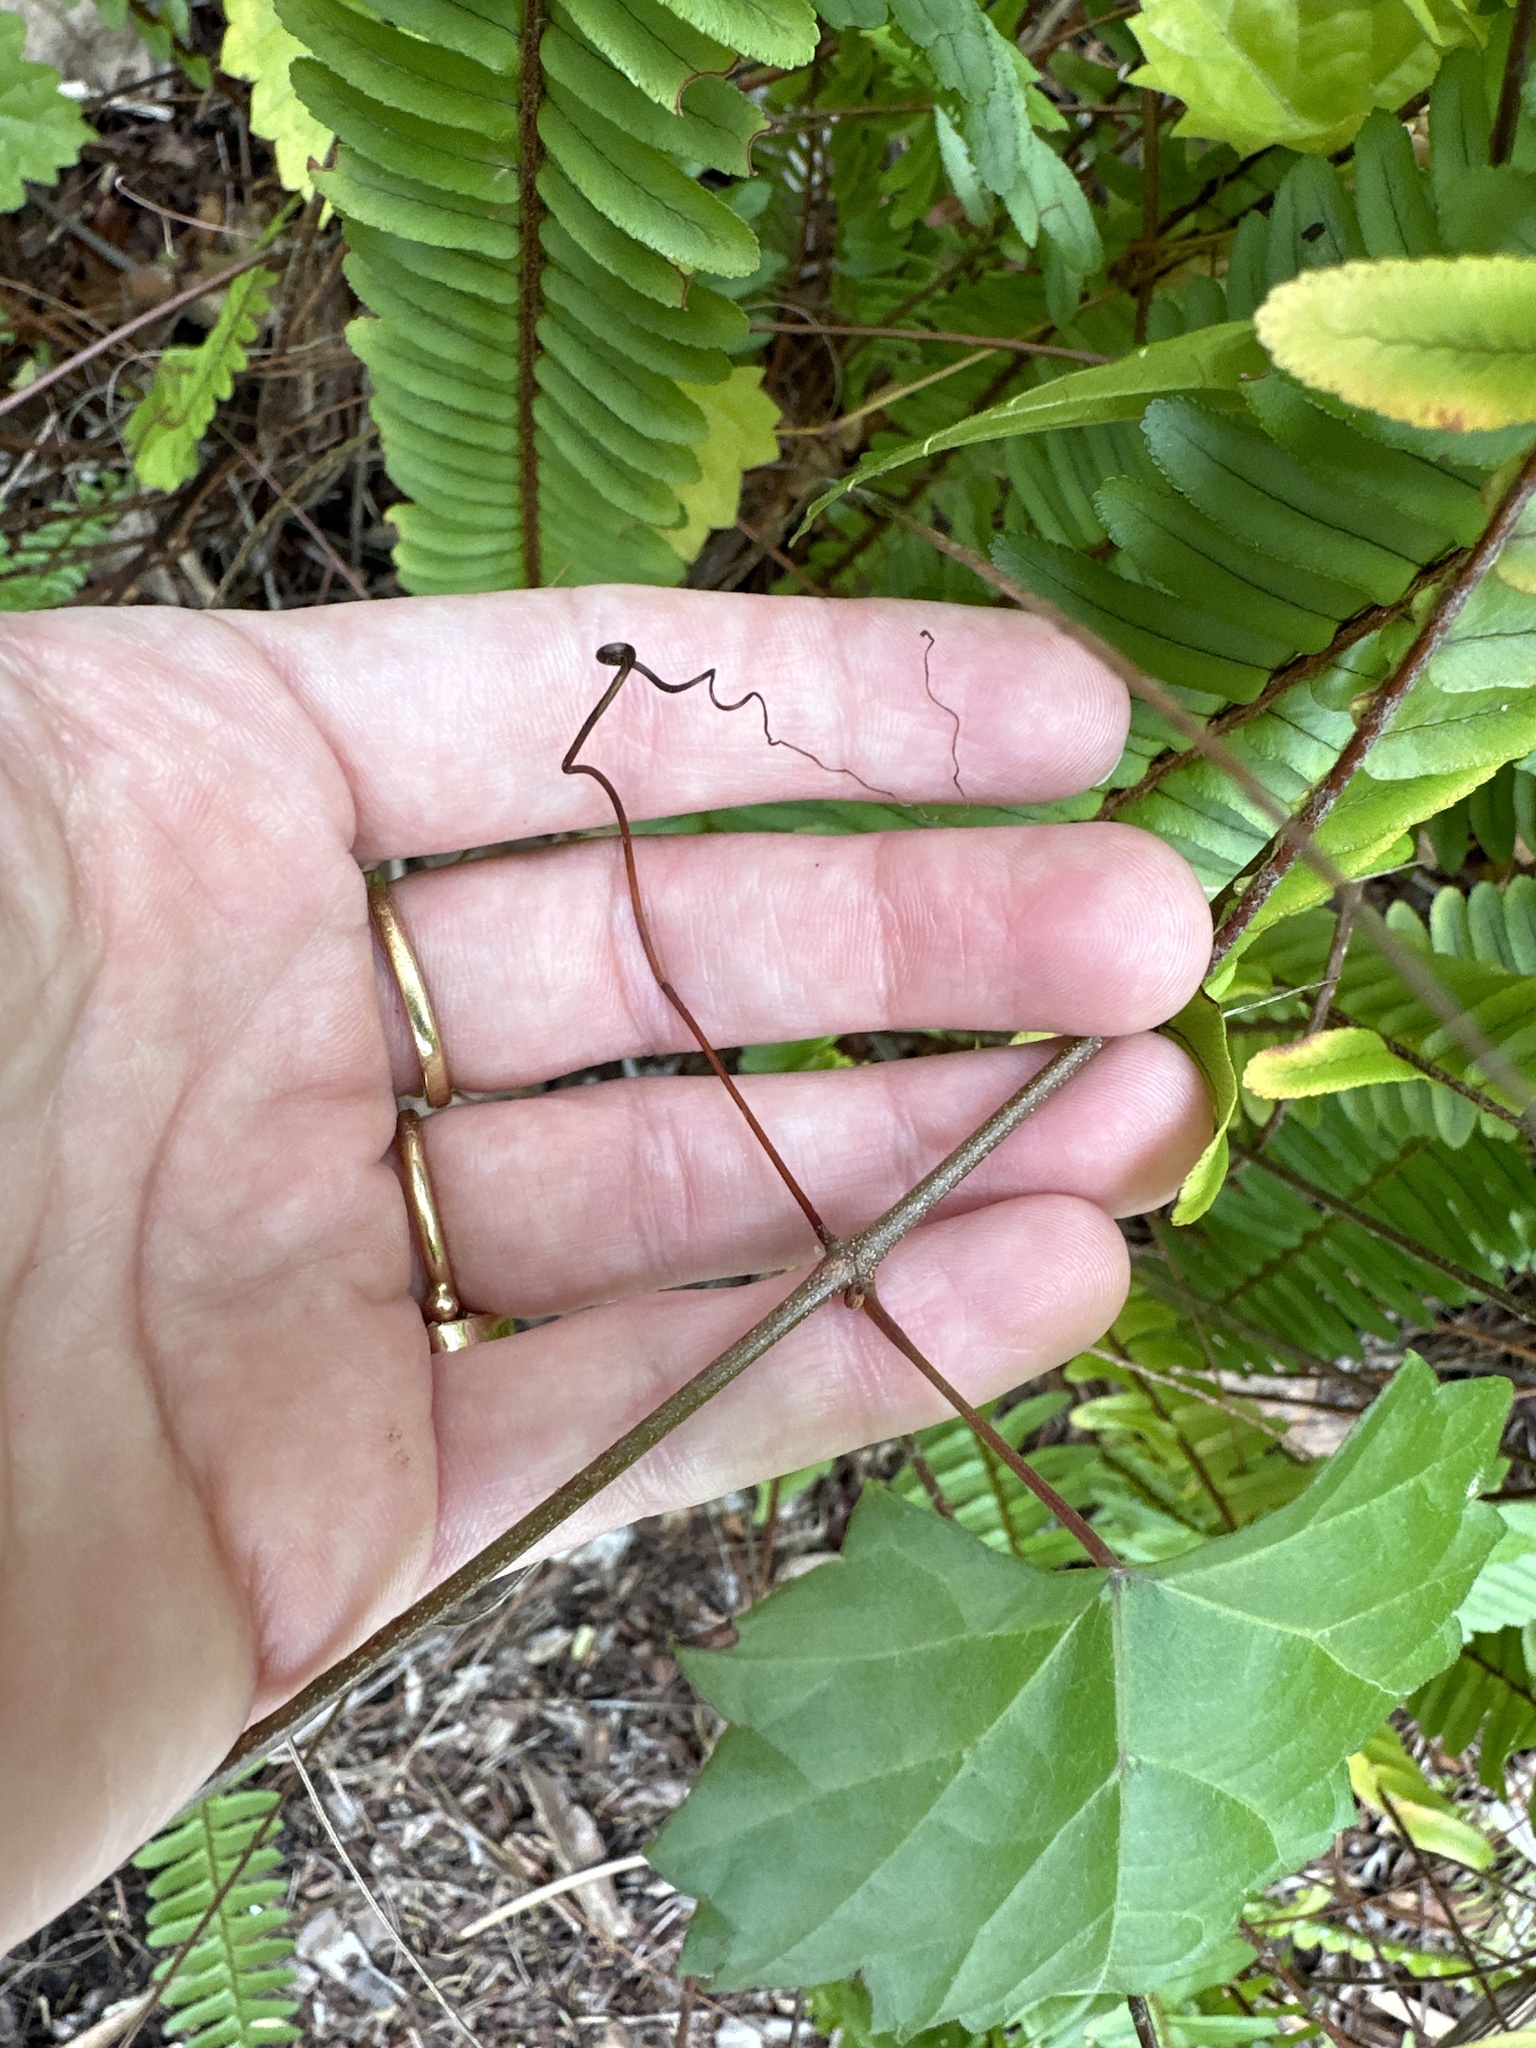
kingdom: Plantae
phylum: Tracheophyta
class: Magnoliopsida
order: Vitales
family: Vitaceae
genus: Vitis
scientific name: Vitis rotundifolia
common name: Muscadine grape
